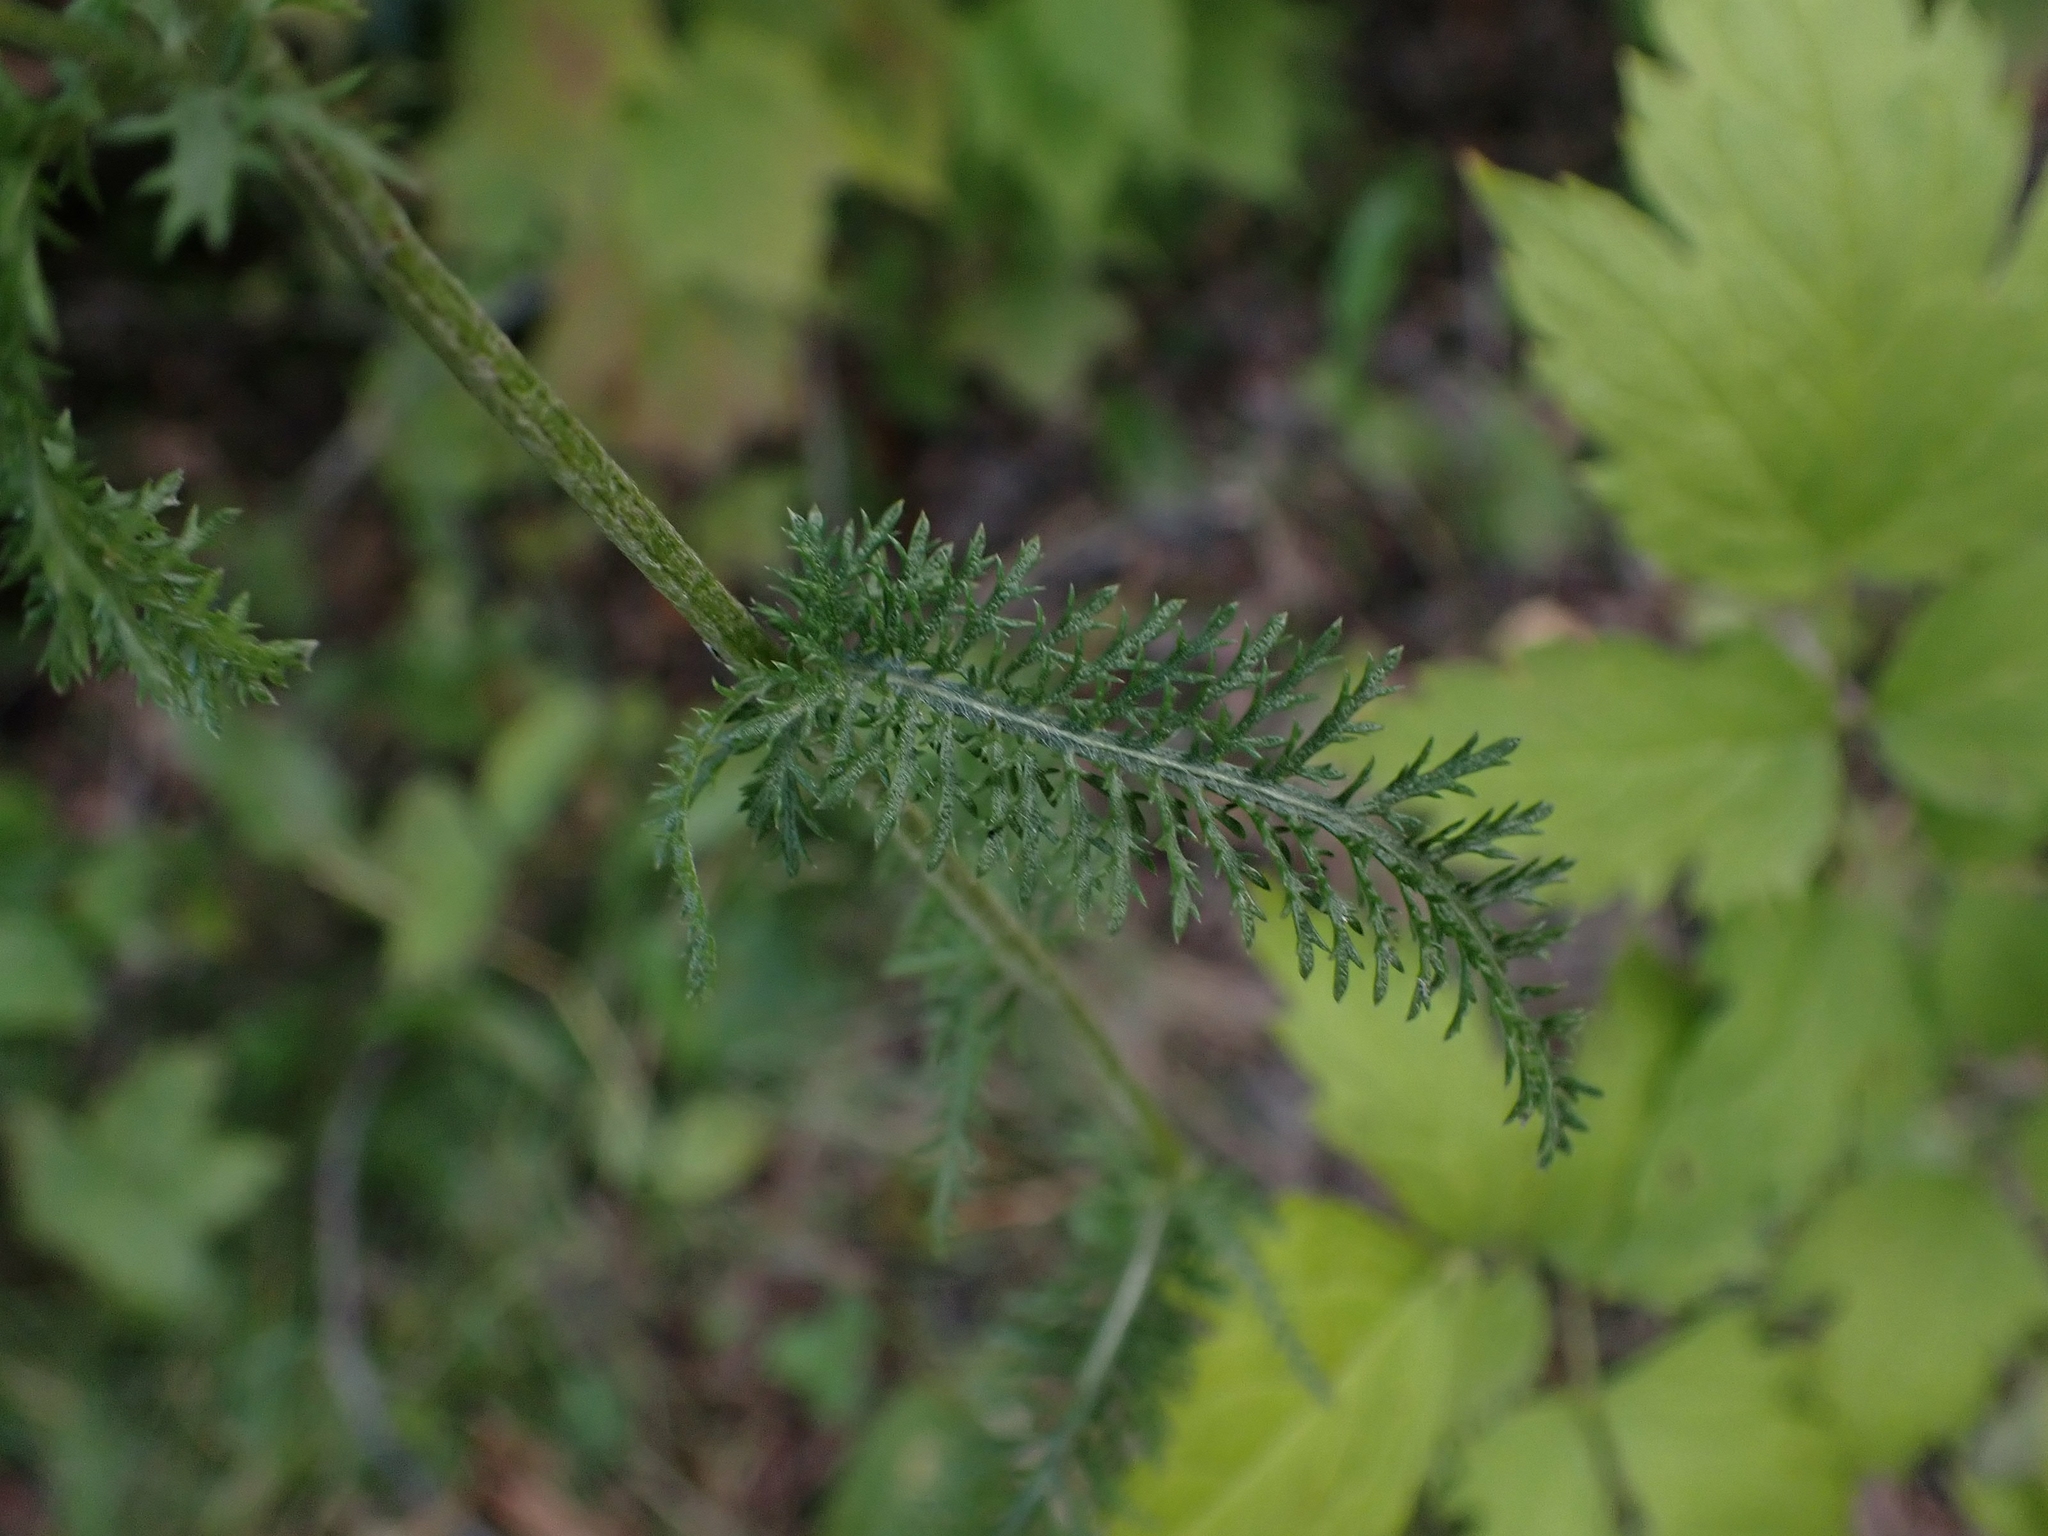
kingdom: Plantae
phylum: Tracheophyta
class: Magnoliopsida
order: Asterales
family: Asteraceae
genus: Achillea
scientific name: Achillea millefolium
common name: Yarrow
